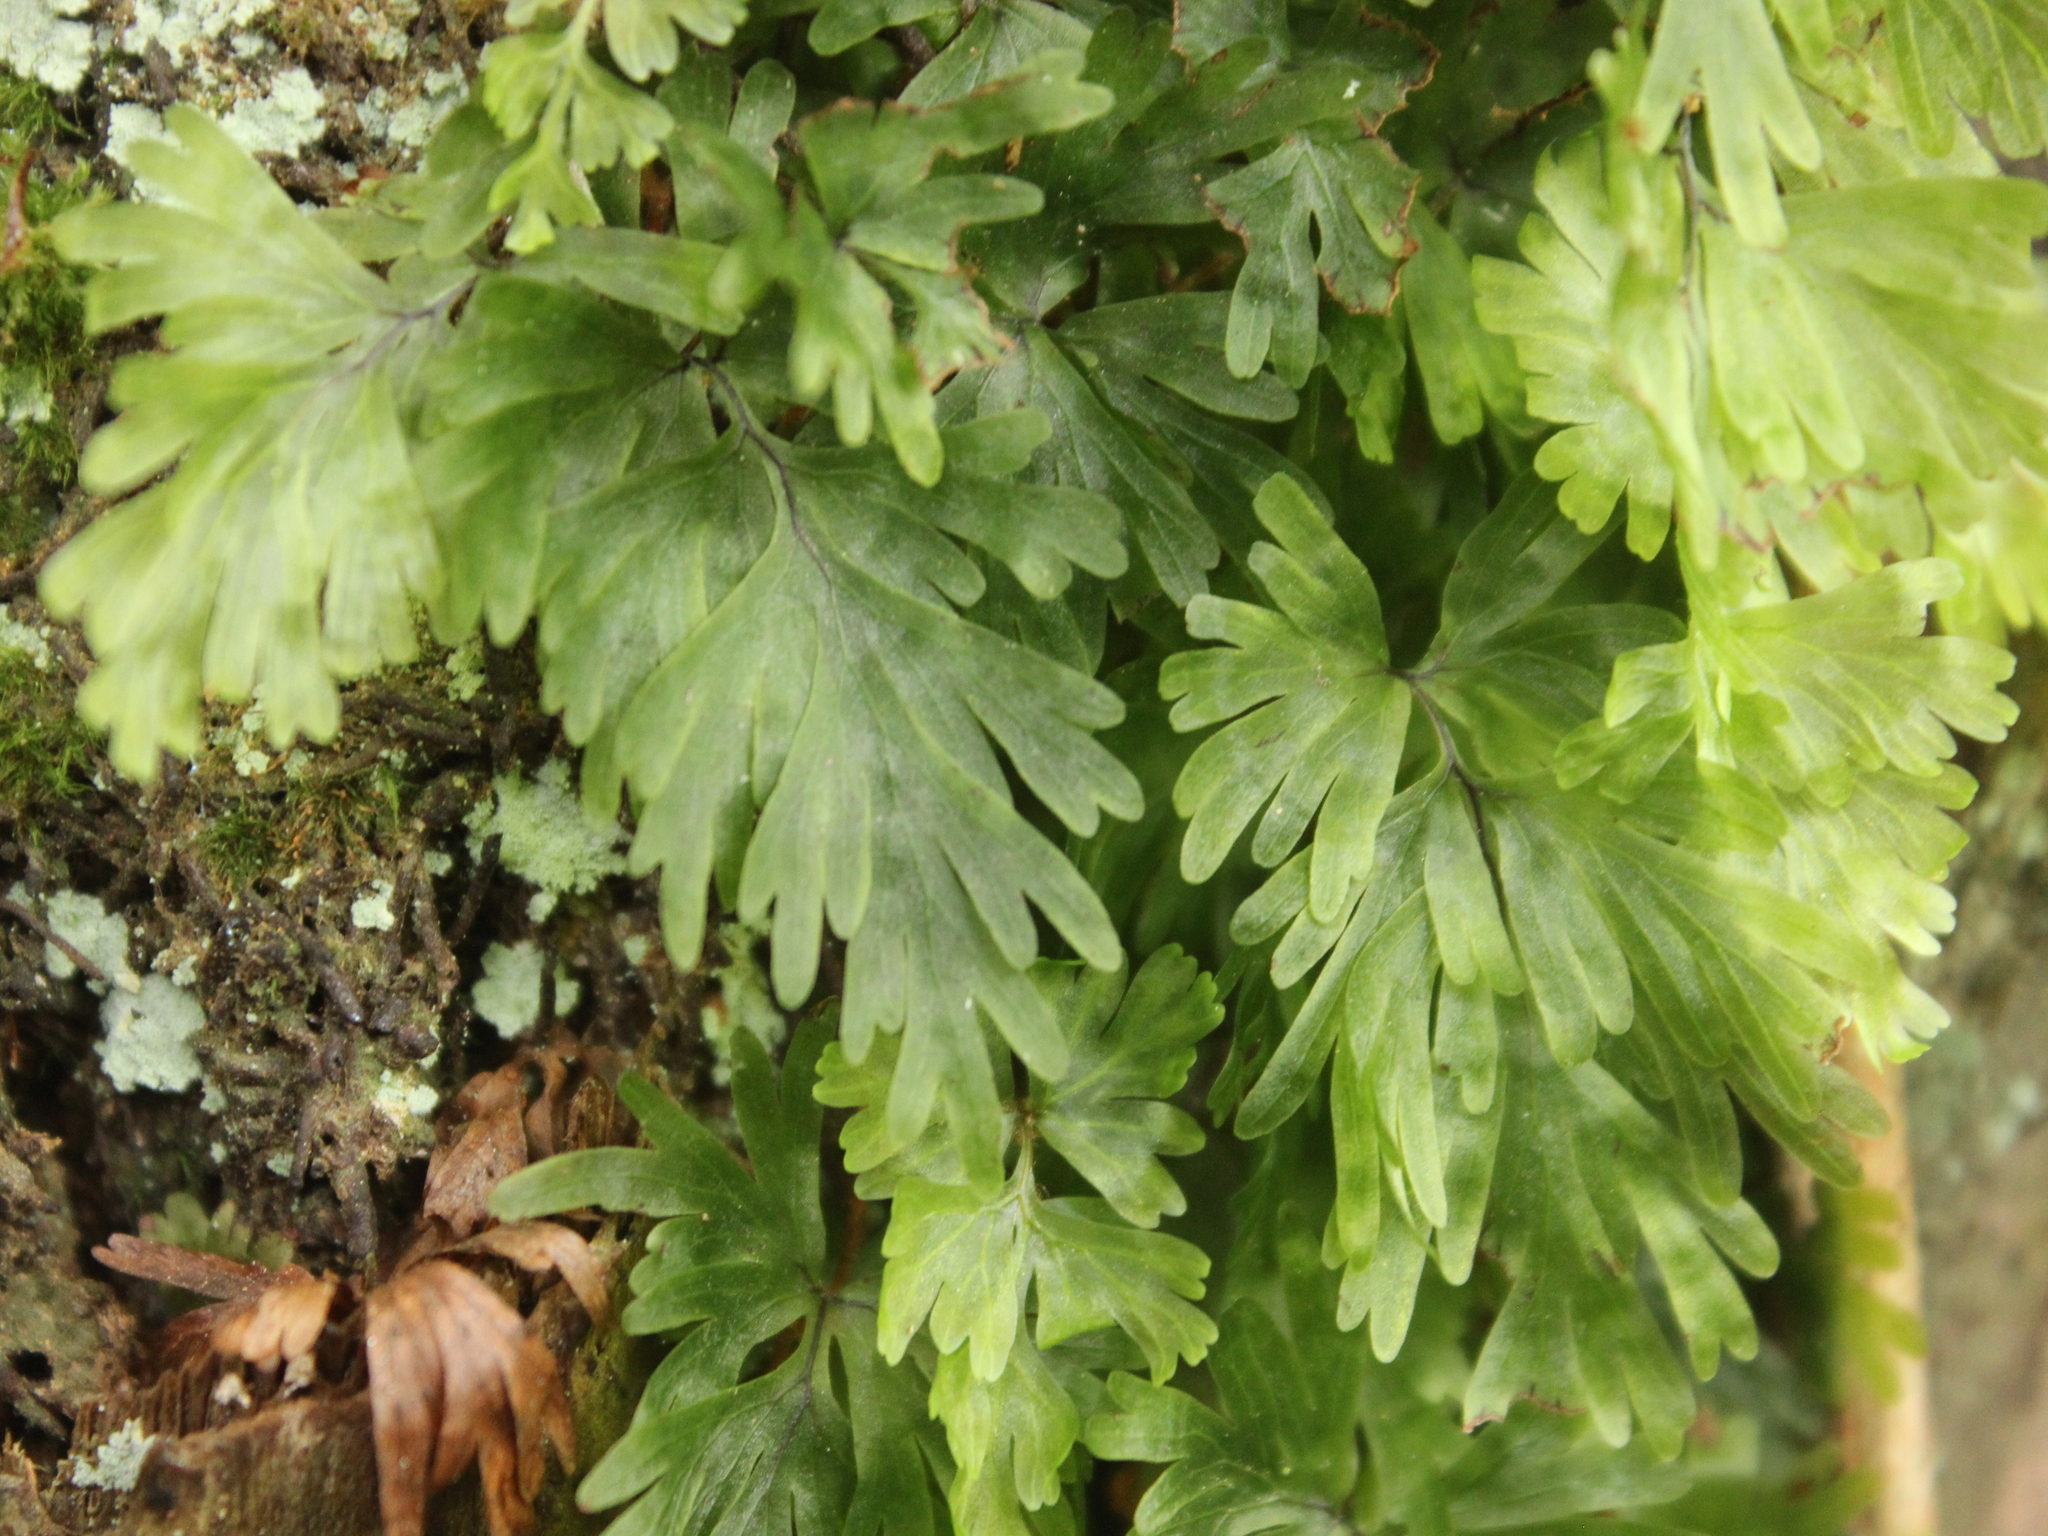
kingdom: Plantae
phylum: Tracheophyta
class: Polypodiopsida
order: Hymenophyllales
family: Hymenophyllaceae
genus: Hymenophyllum
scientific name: Hymenophyllum flabellatum
